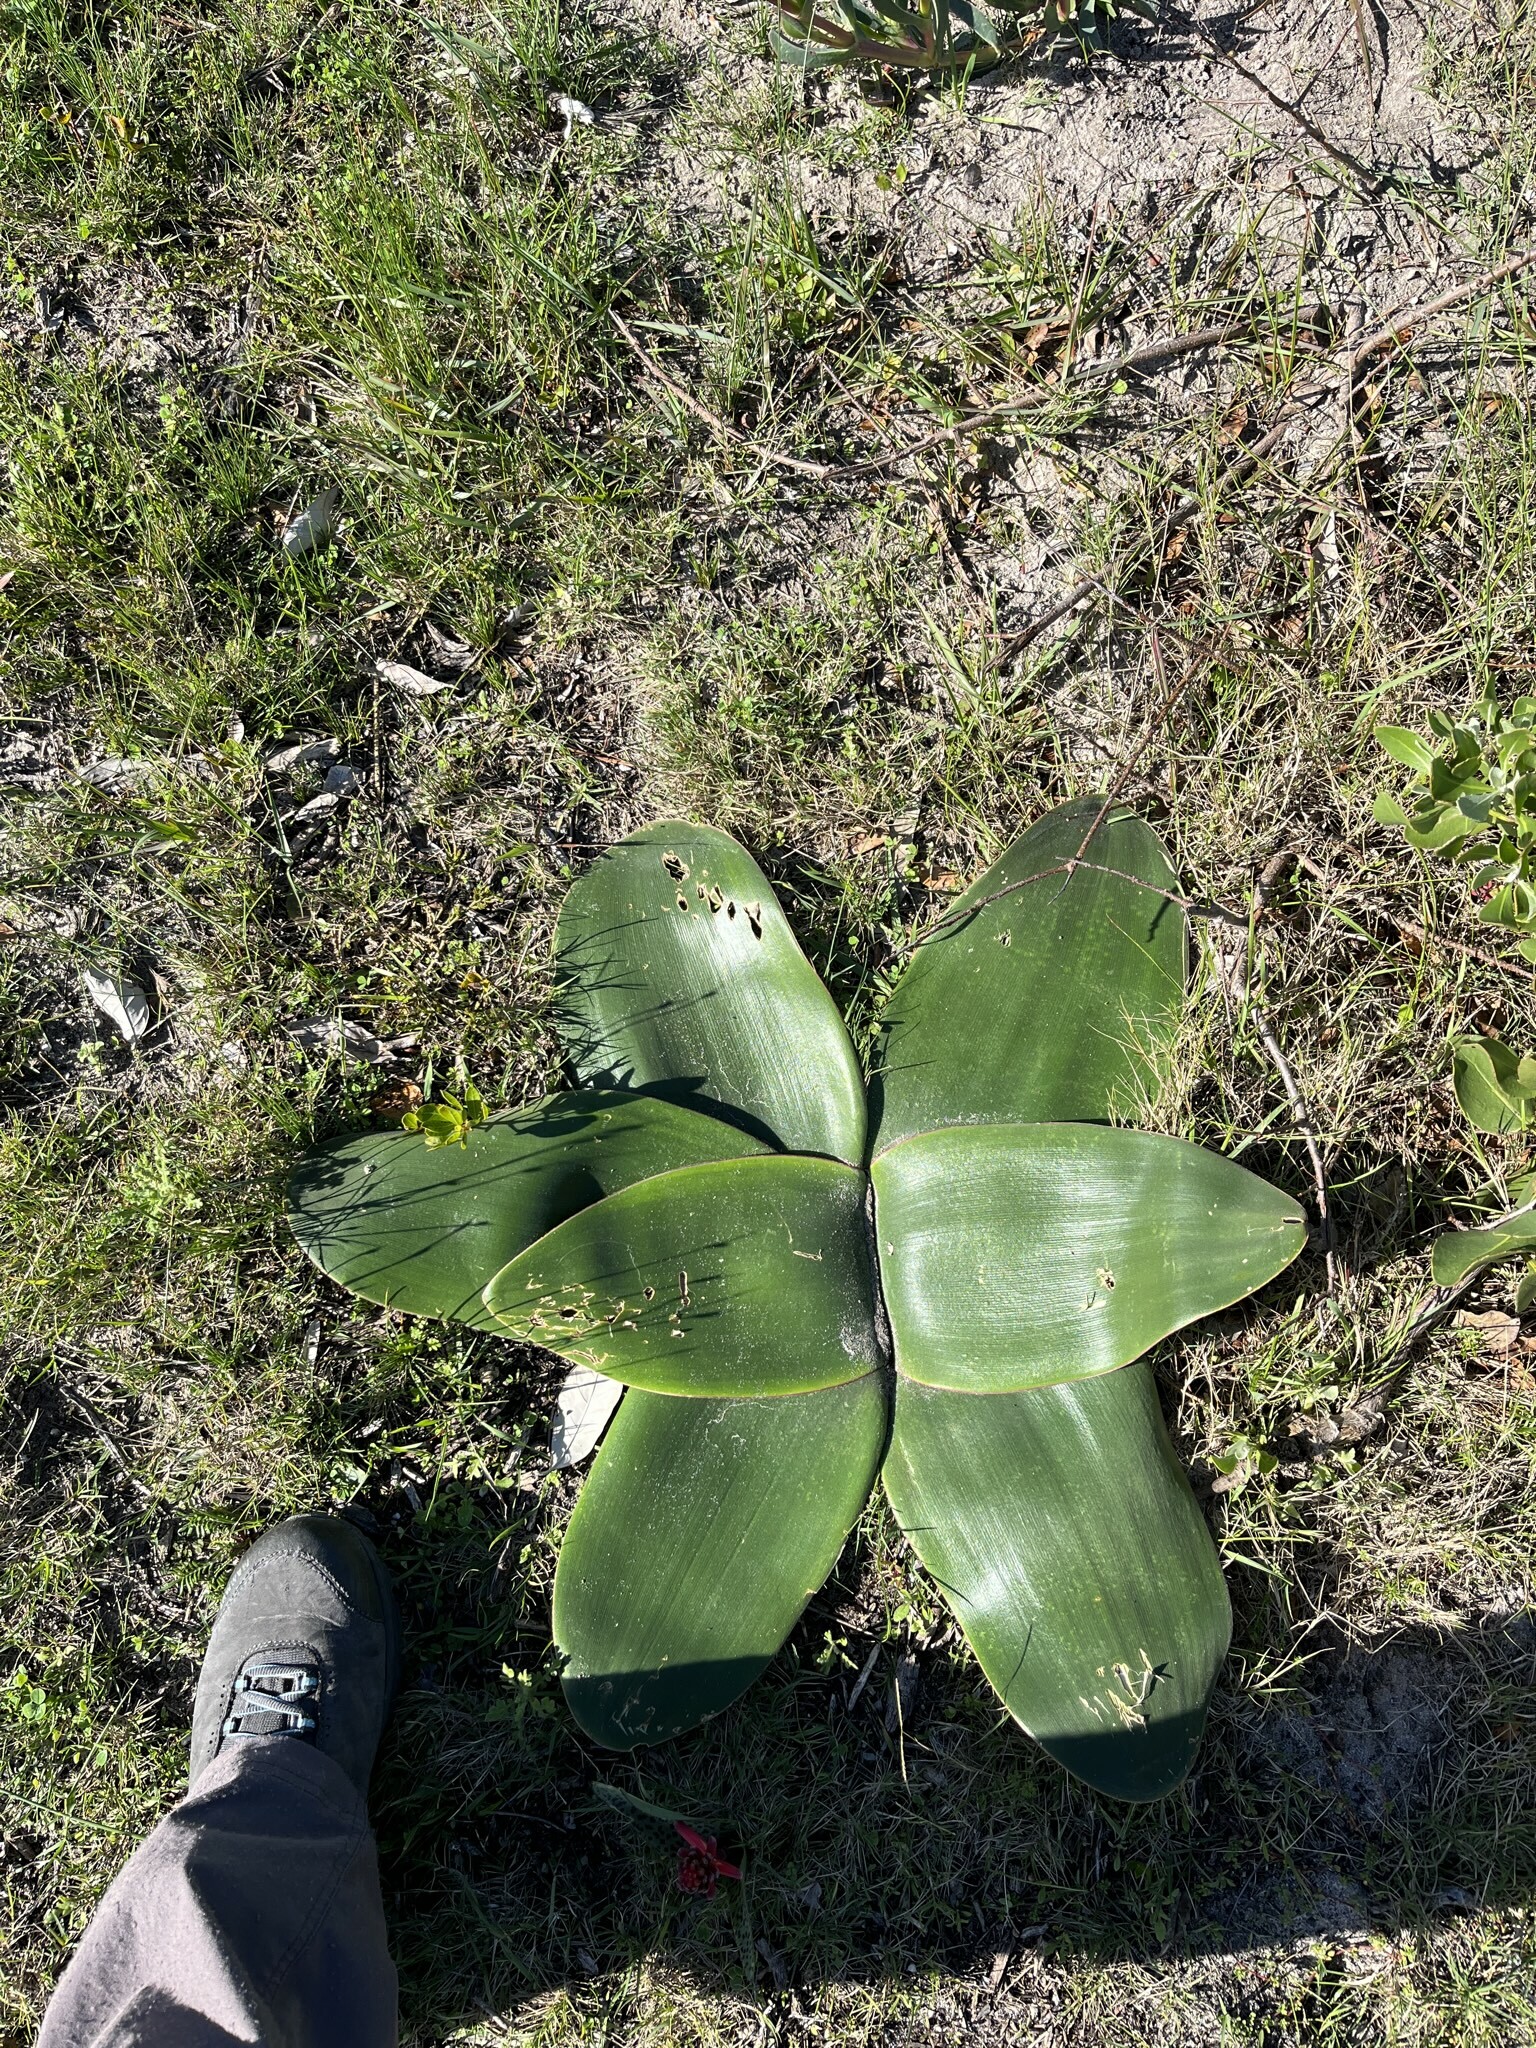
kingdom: Plantae
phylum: Tracheophyta
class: Liliopsida
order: Asparagales
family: Amaryllidaceae
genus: Brunsvigia
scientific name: Brunsvigia orientalis
